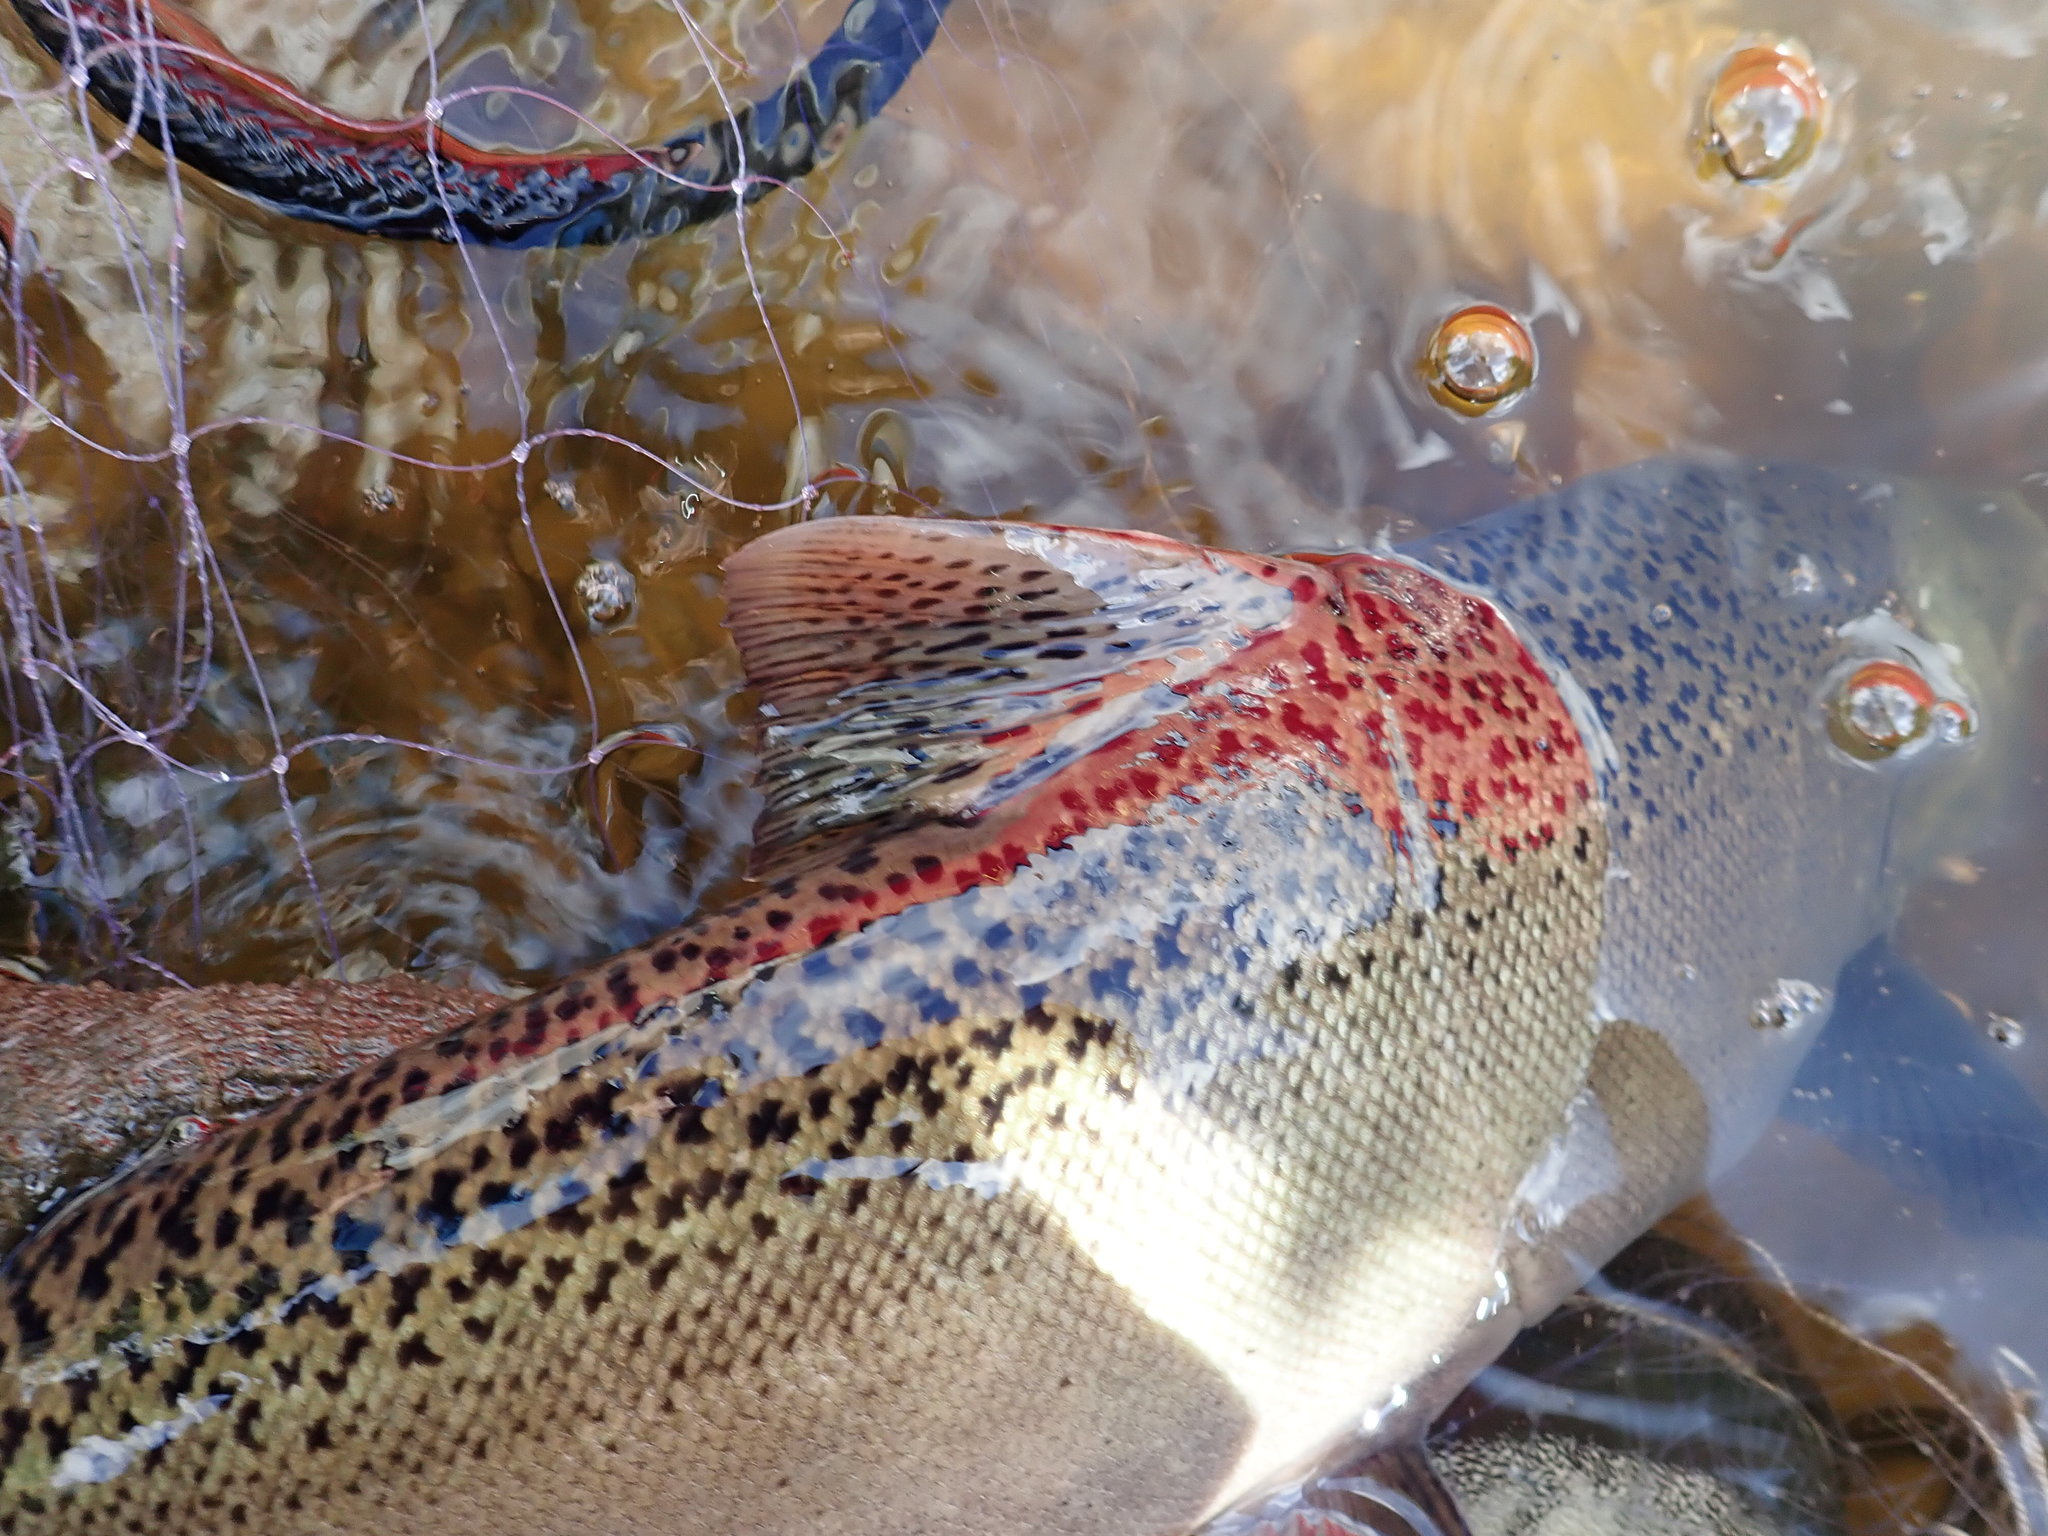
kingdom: Animalia
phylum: Chordata
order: Salmoniformes
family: Salmonidae
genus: Oncorhynchus
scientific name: Oncorhynchus tshawytscha
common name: Chinook salmon
